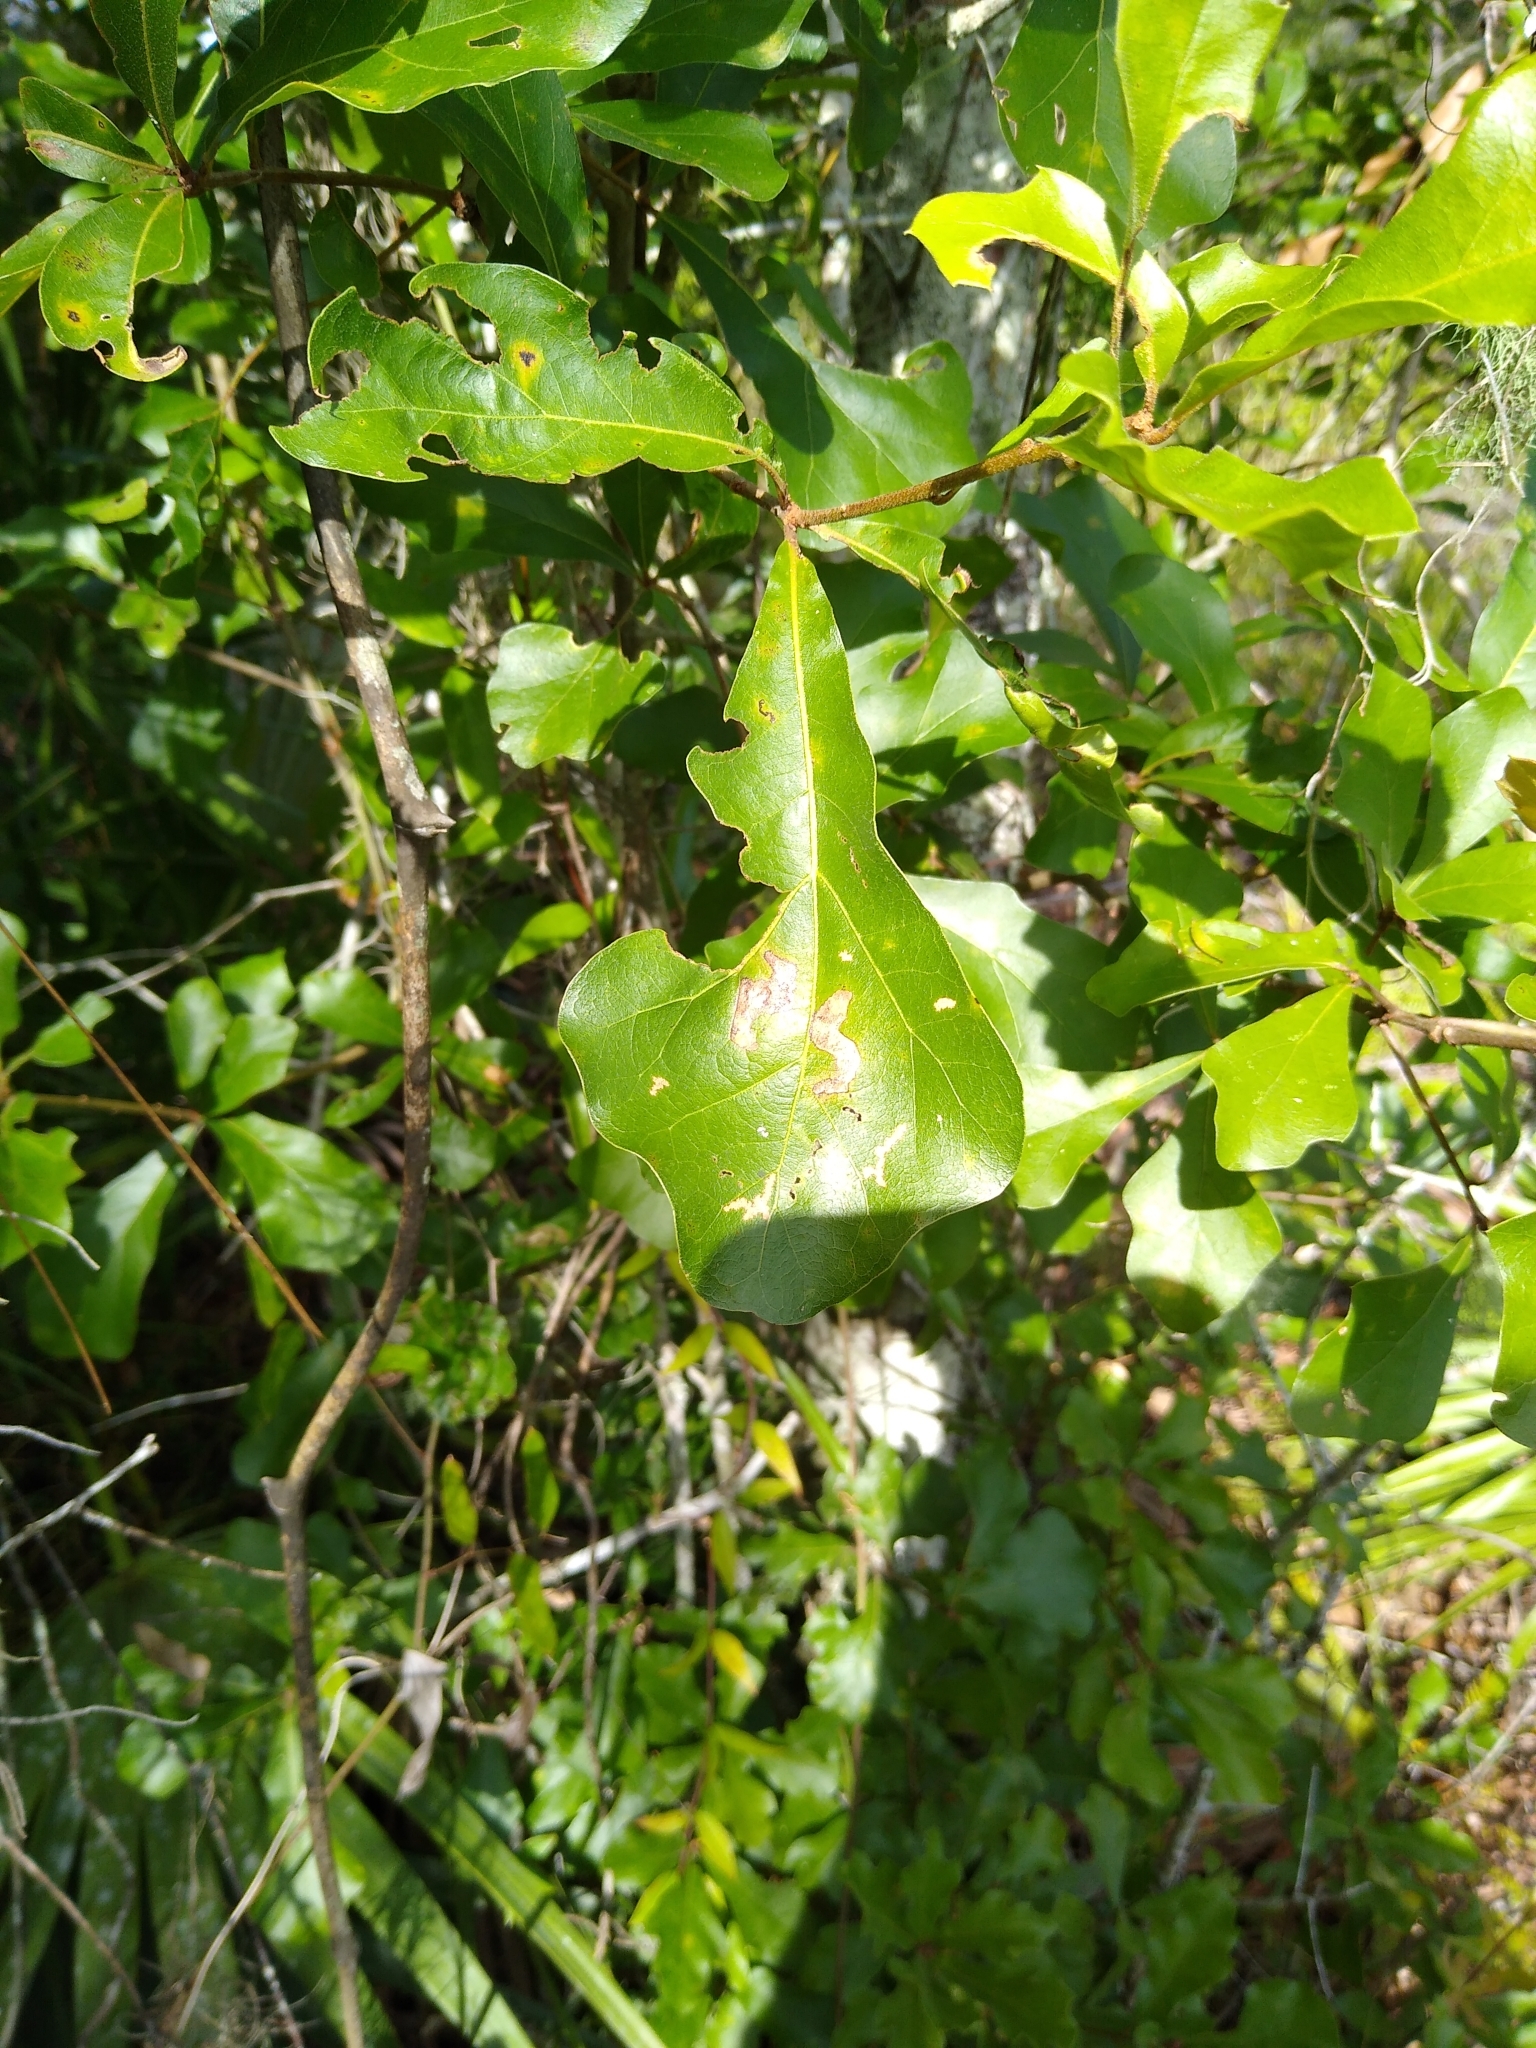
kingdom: Plantae
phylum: Tracheophyta
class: Magnoliopsida
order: Fagales
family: Fagaceae
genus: Quercus
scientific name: Quercus nigra
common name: Water oak
